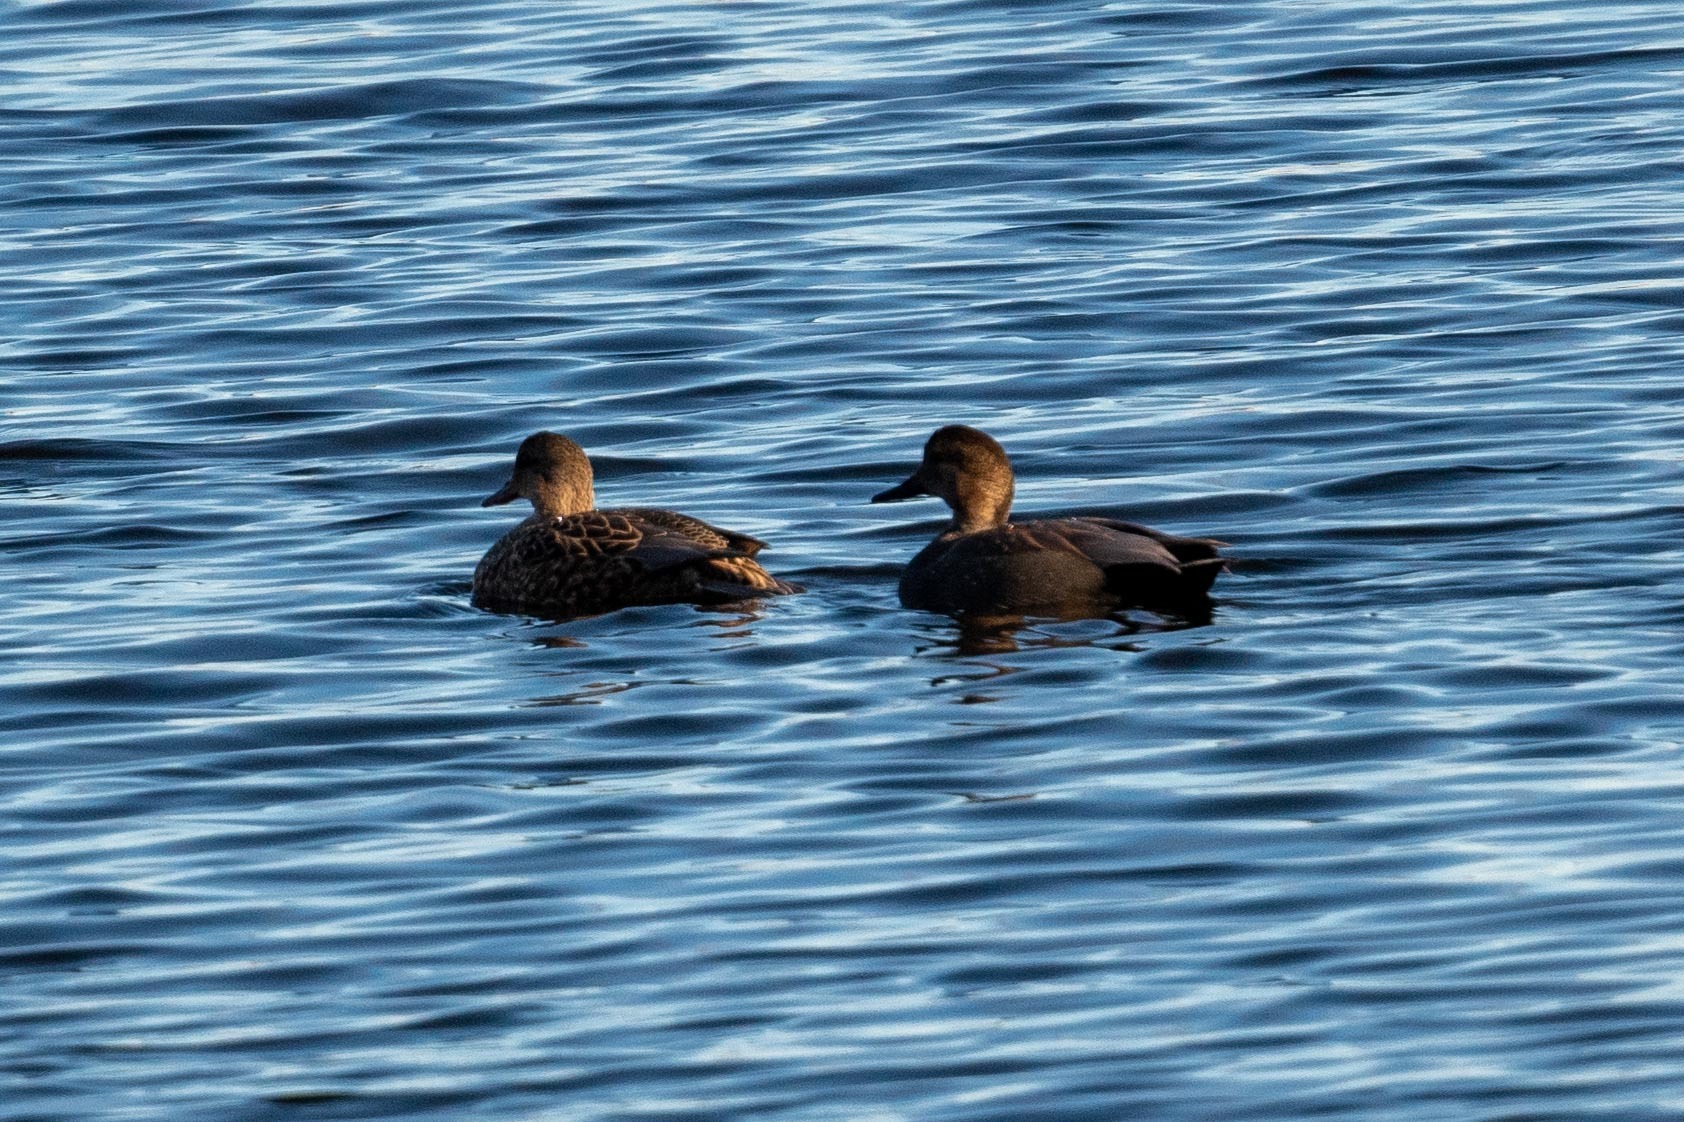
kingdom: Animalia
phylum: Chordata
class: Aves
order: Anseriformes
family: Anatidae
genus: Mareca
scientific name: Mareca strepera
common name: Gadwall
